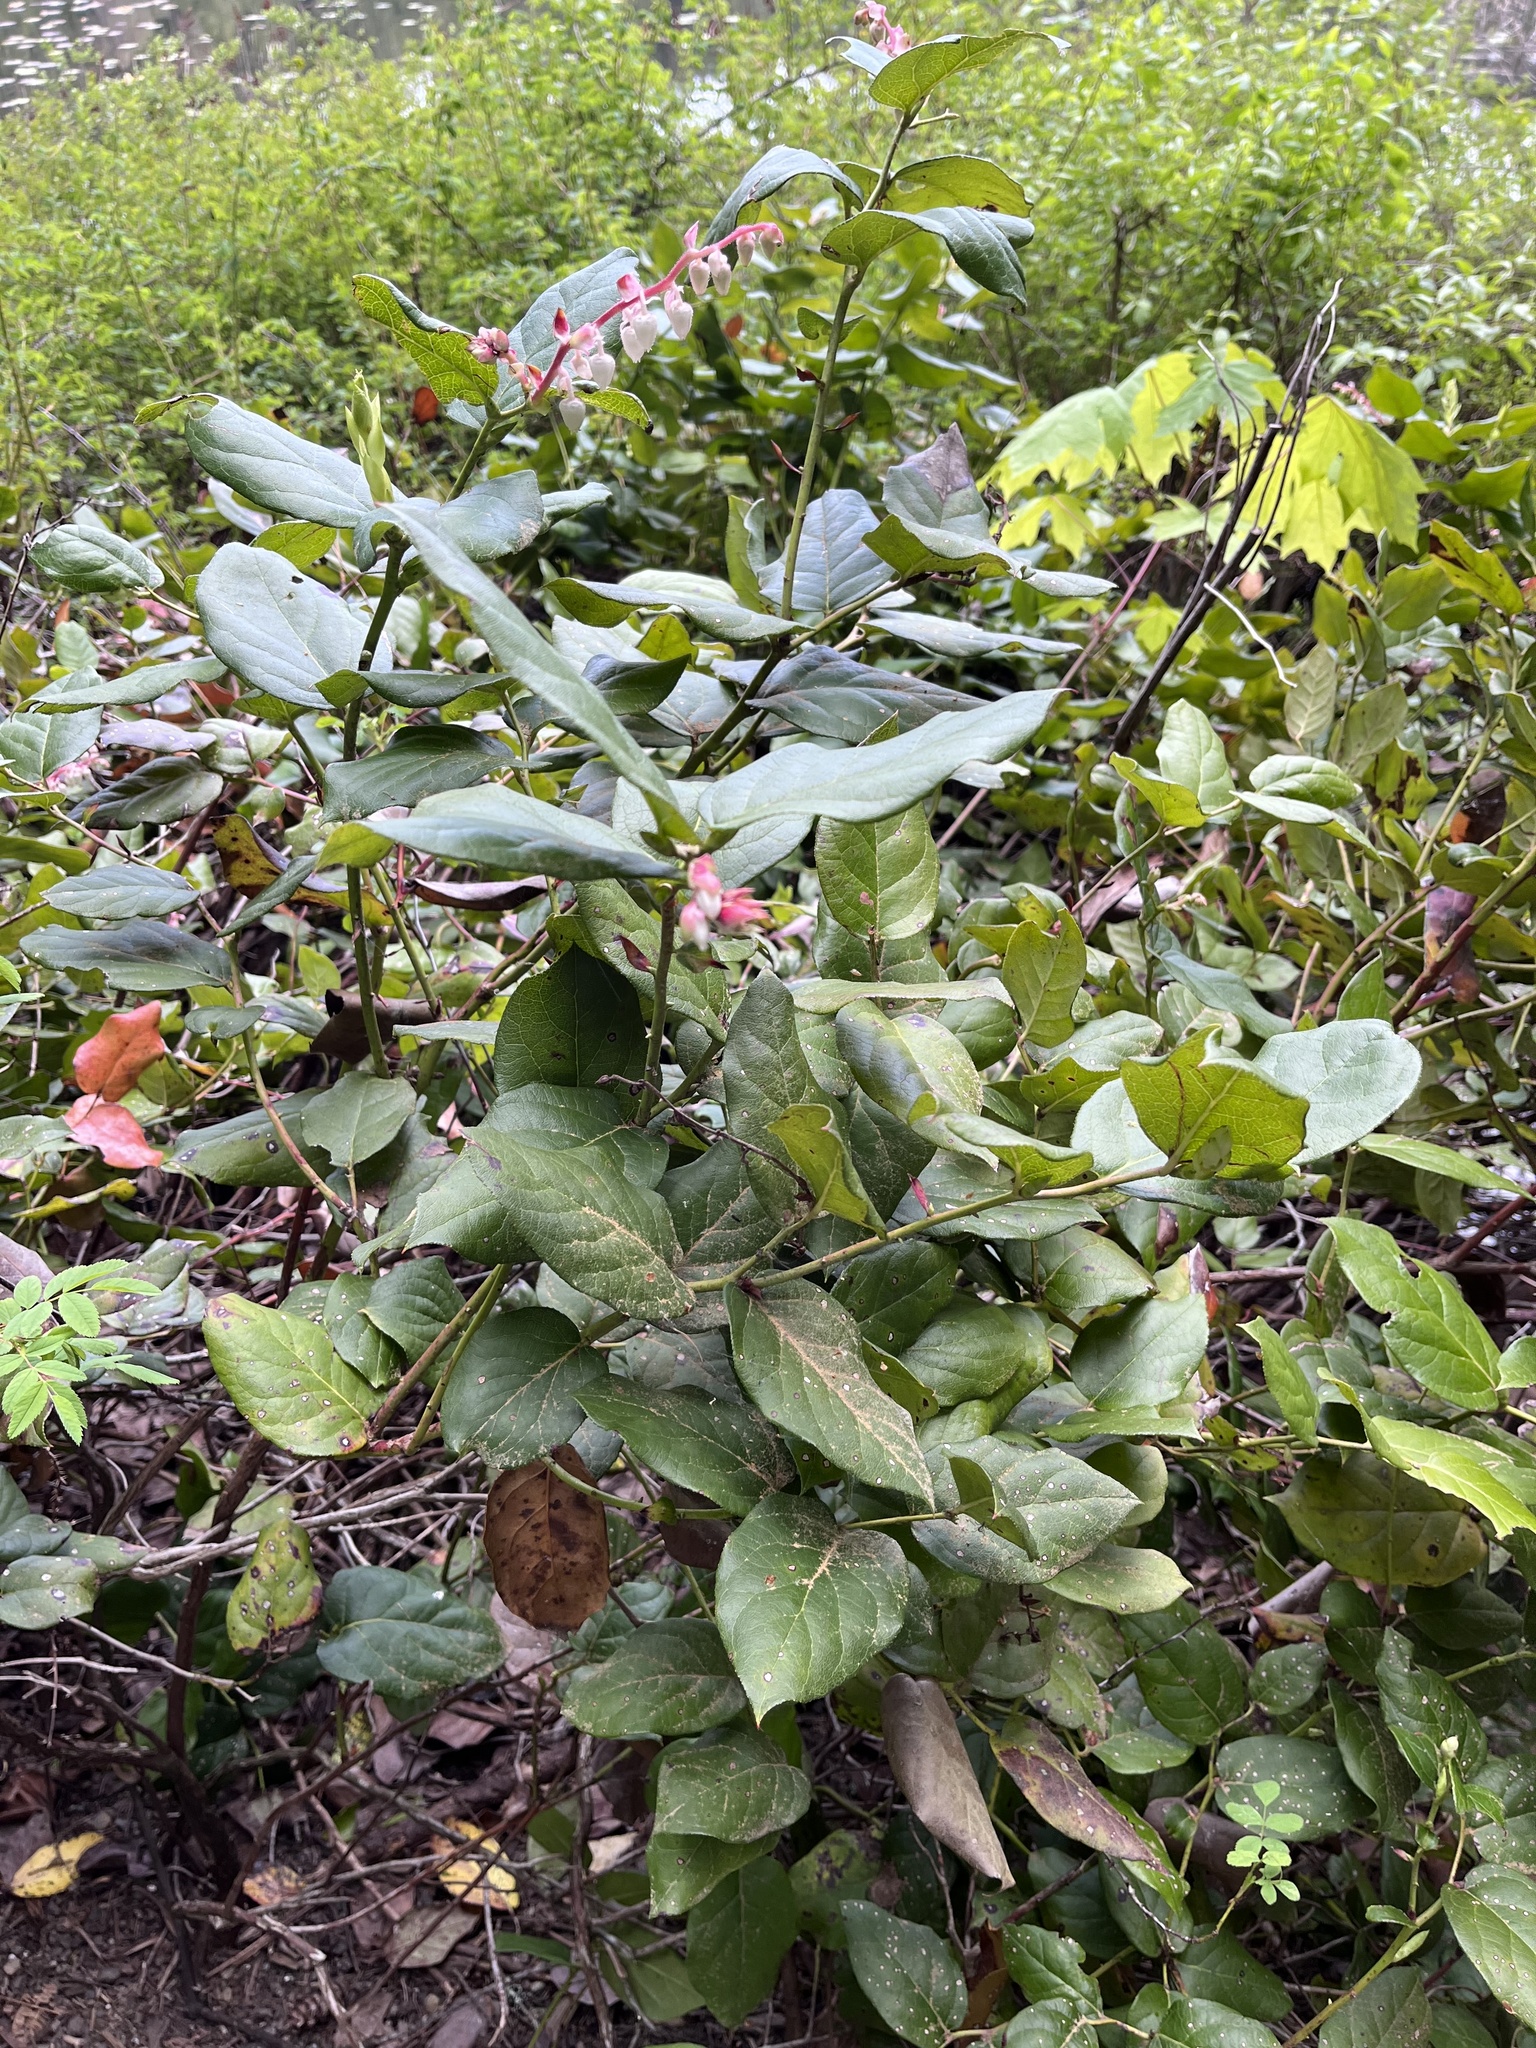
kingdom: Plantae
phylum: Tracheophyta
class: Magnoliopsida
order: Ericales
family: Ericaceae
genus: Gaultheria
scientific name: Gaultheria shallon
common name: Shallon
